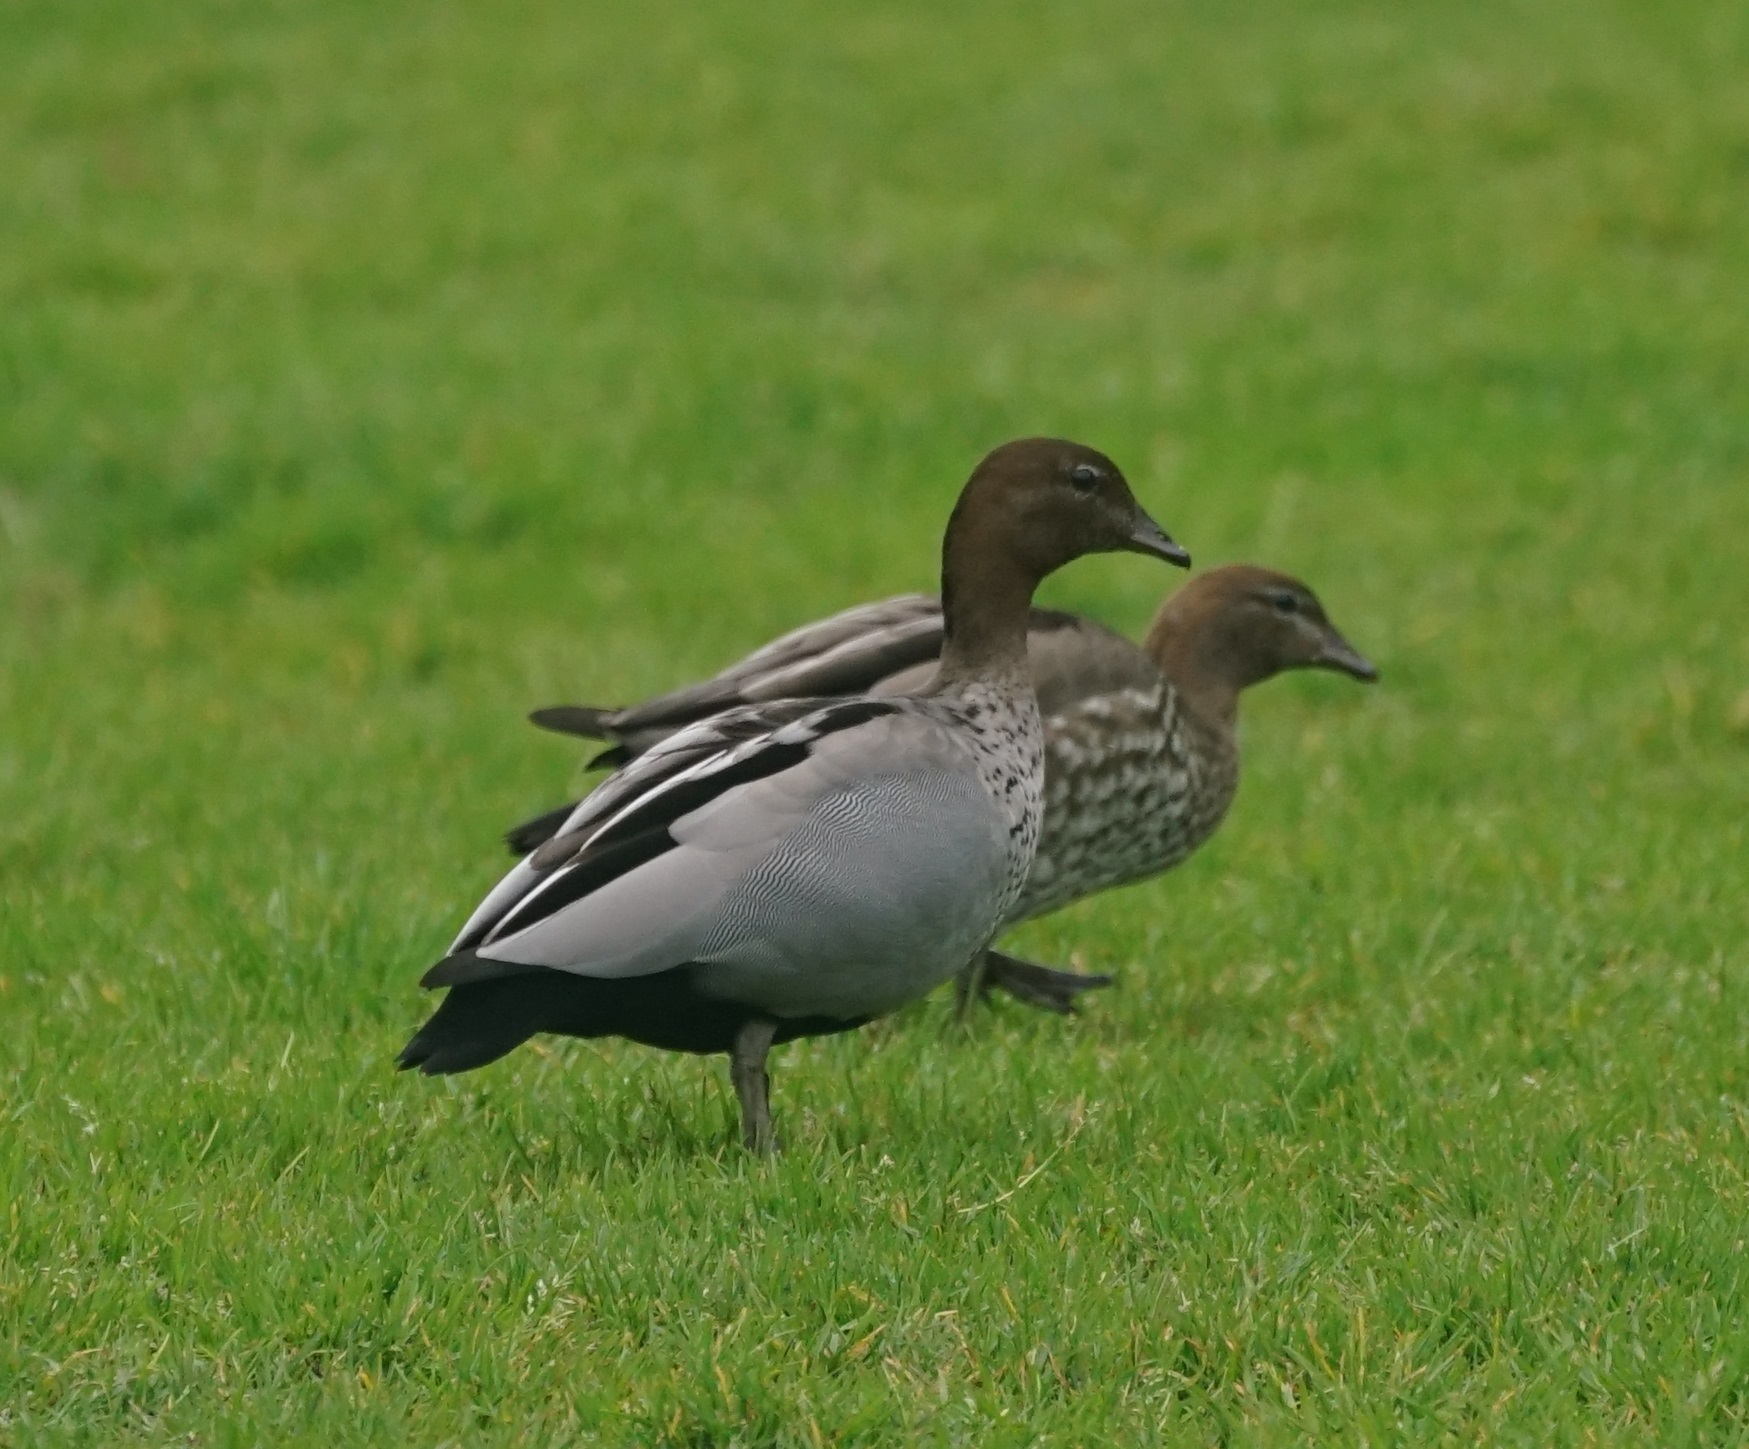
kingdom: Animalia
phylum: Chordata
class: Aves
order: Anseriformes
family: Anatidae
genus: Chenonetta
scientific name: Chenonetta jubata
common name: Maned duck
